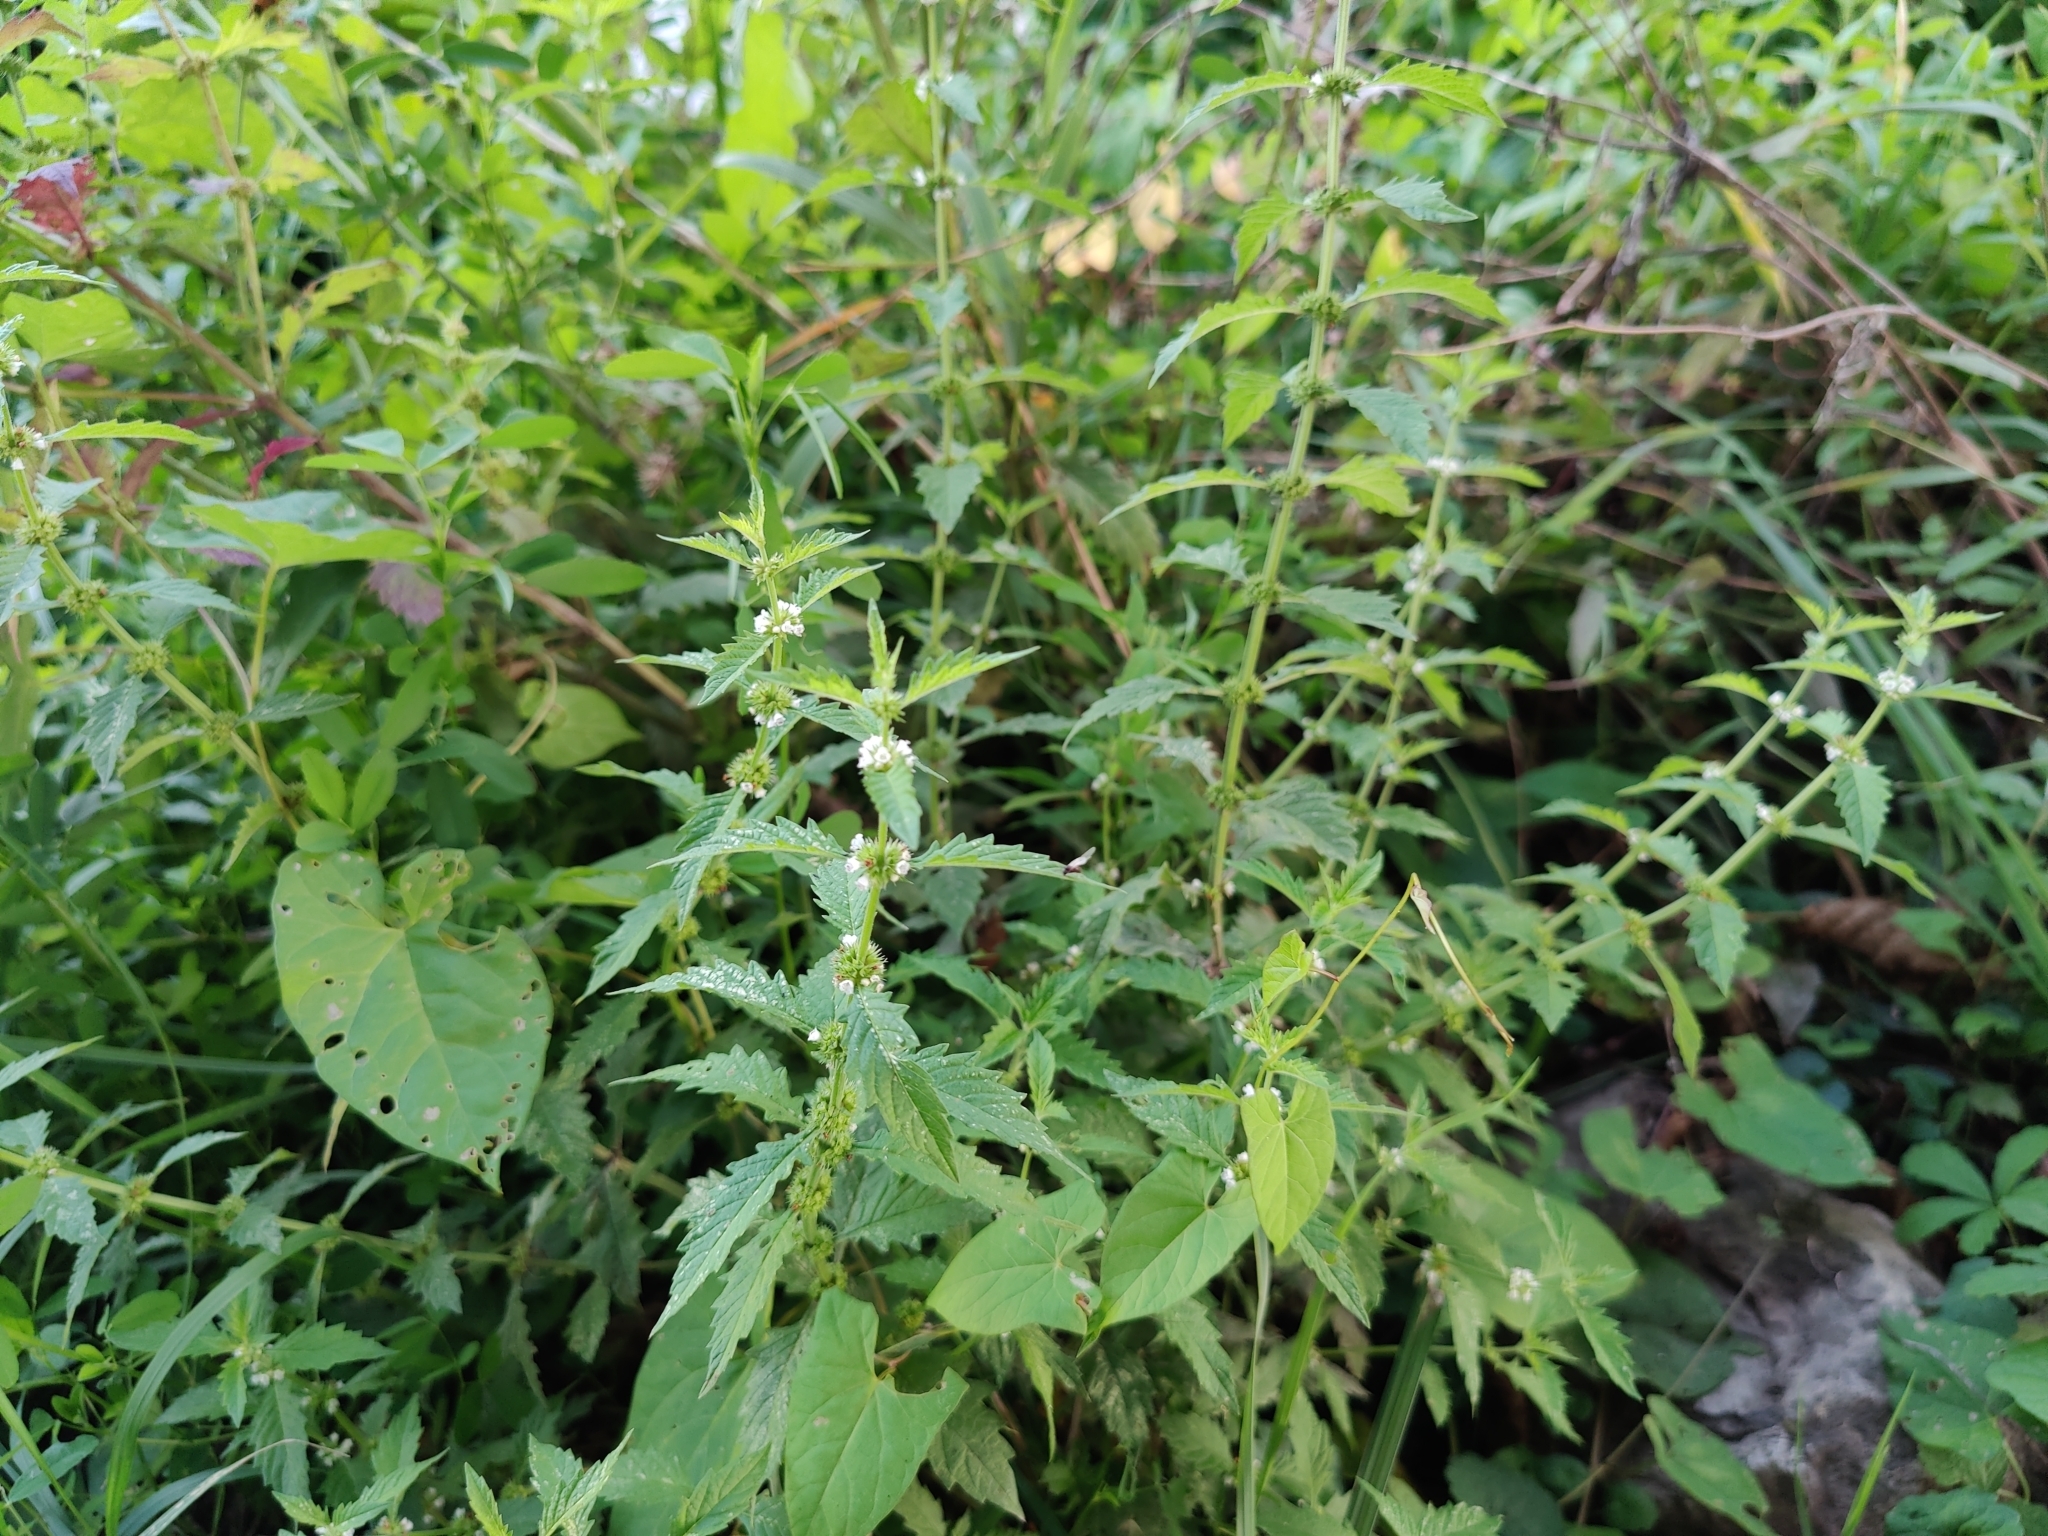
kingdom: Plantae
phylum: Tracheophyta
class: Magnoliopsida
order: Lamiales
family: Lamiaceae
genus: Lycopus
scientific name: Lycopus europaeus
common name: European bugleweed
